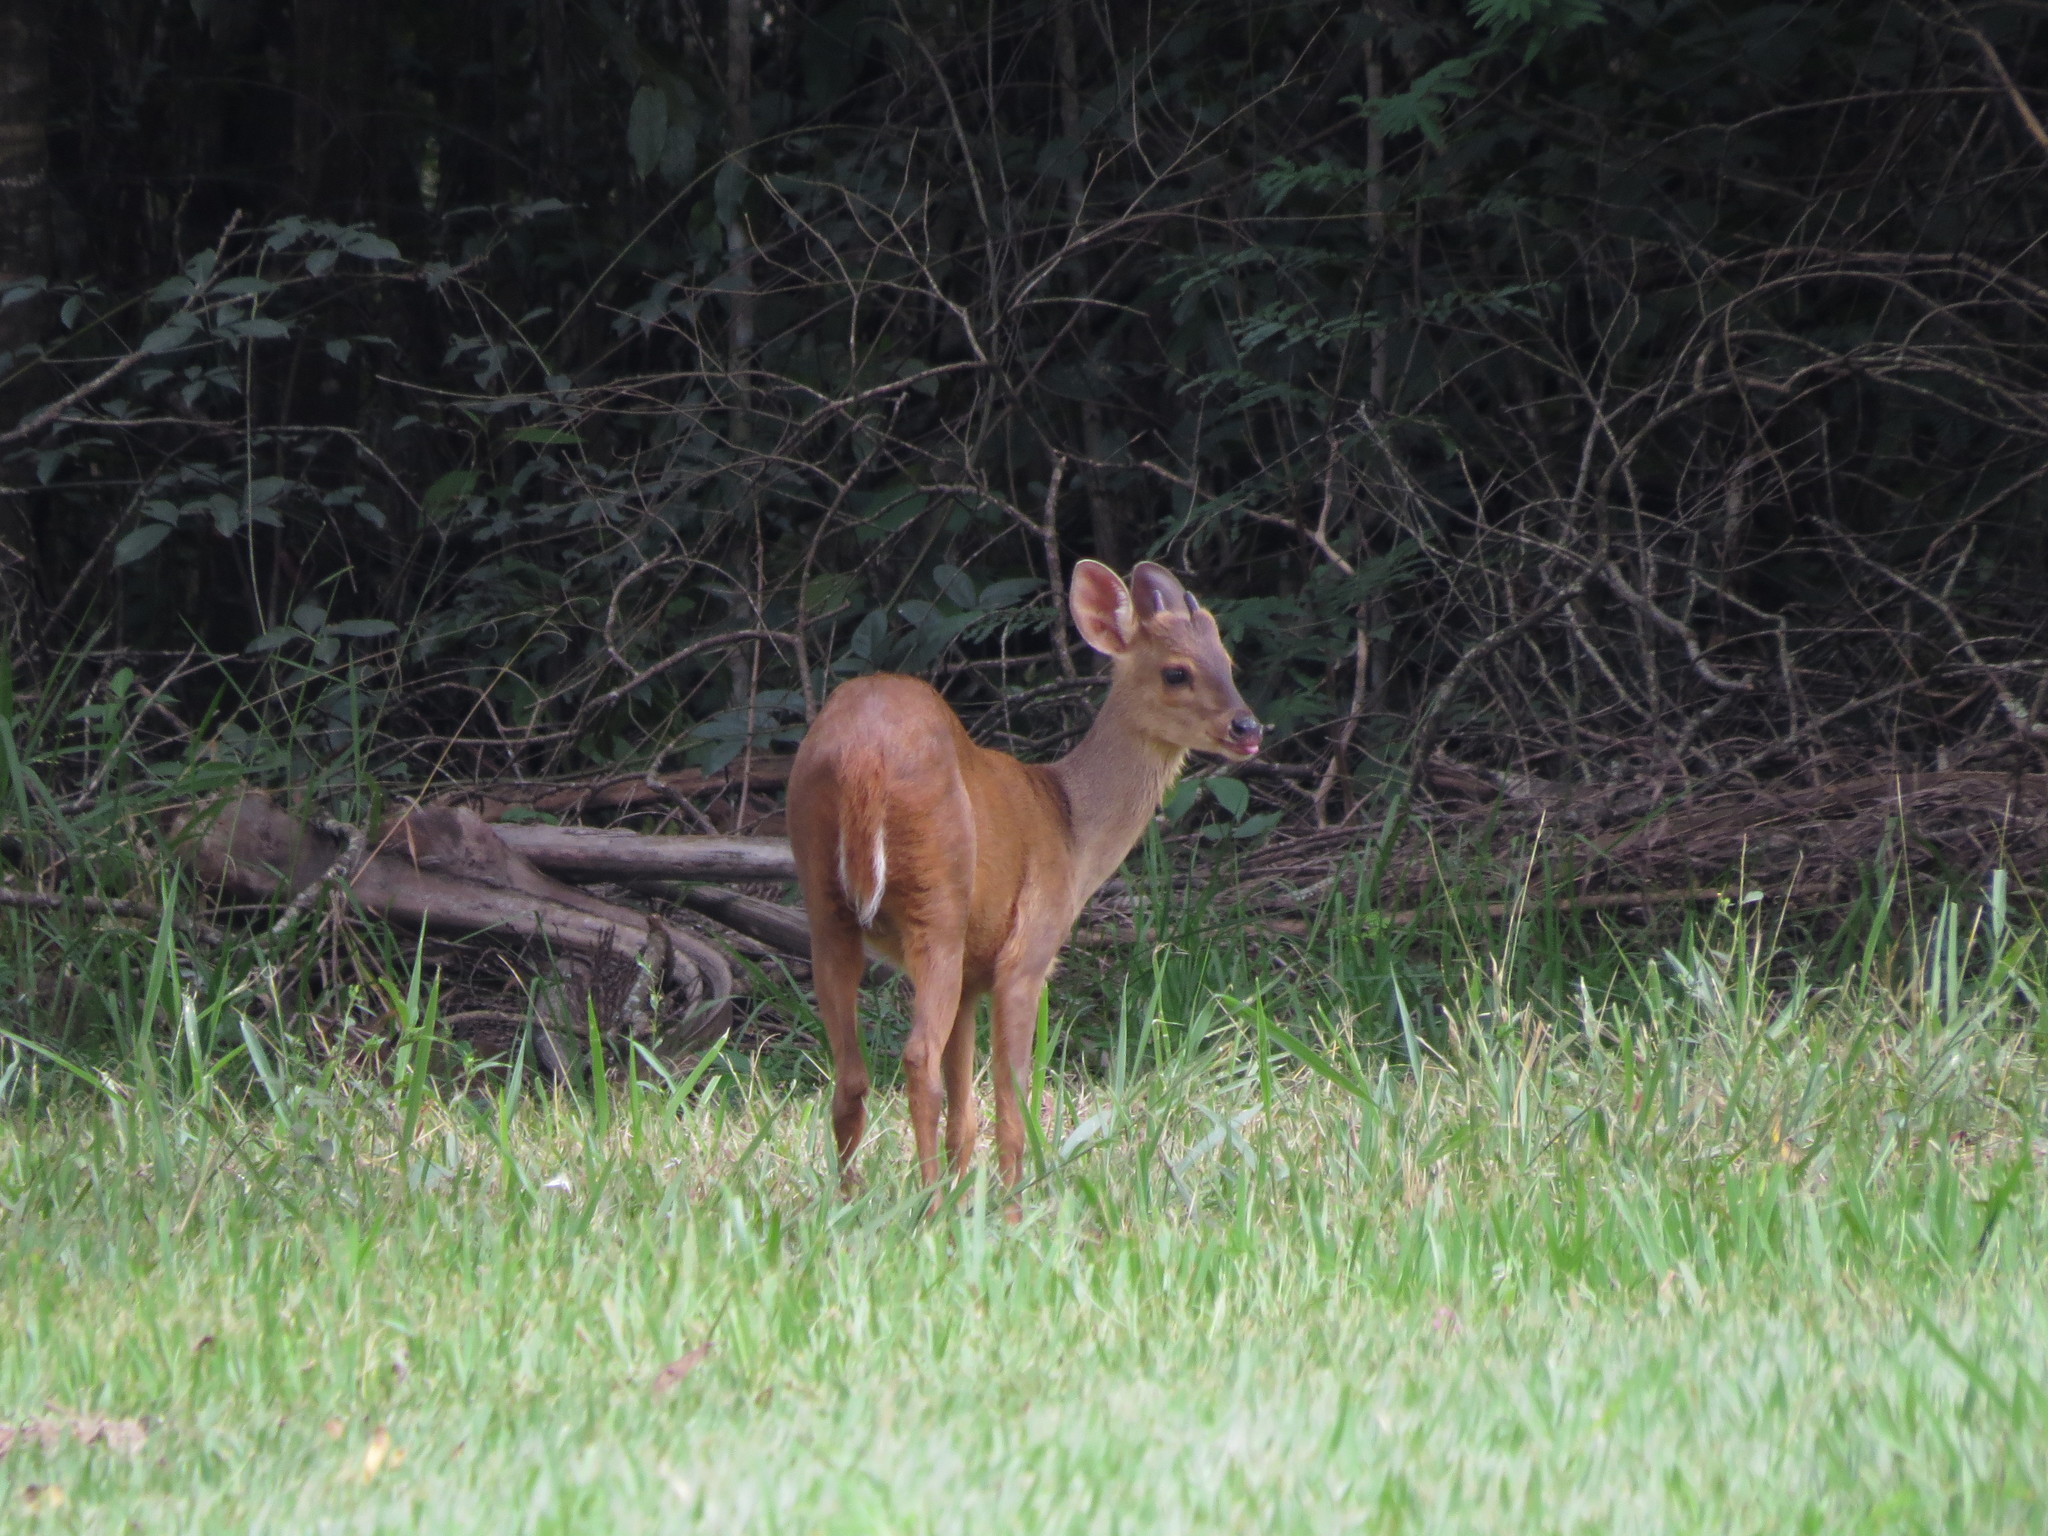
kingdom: Animalia
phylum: Chordata
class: Mammalia
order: Artiodactyla
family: Cervidae
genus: Mazama
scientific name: Mazama gouazoubira
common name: Gray brocket
